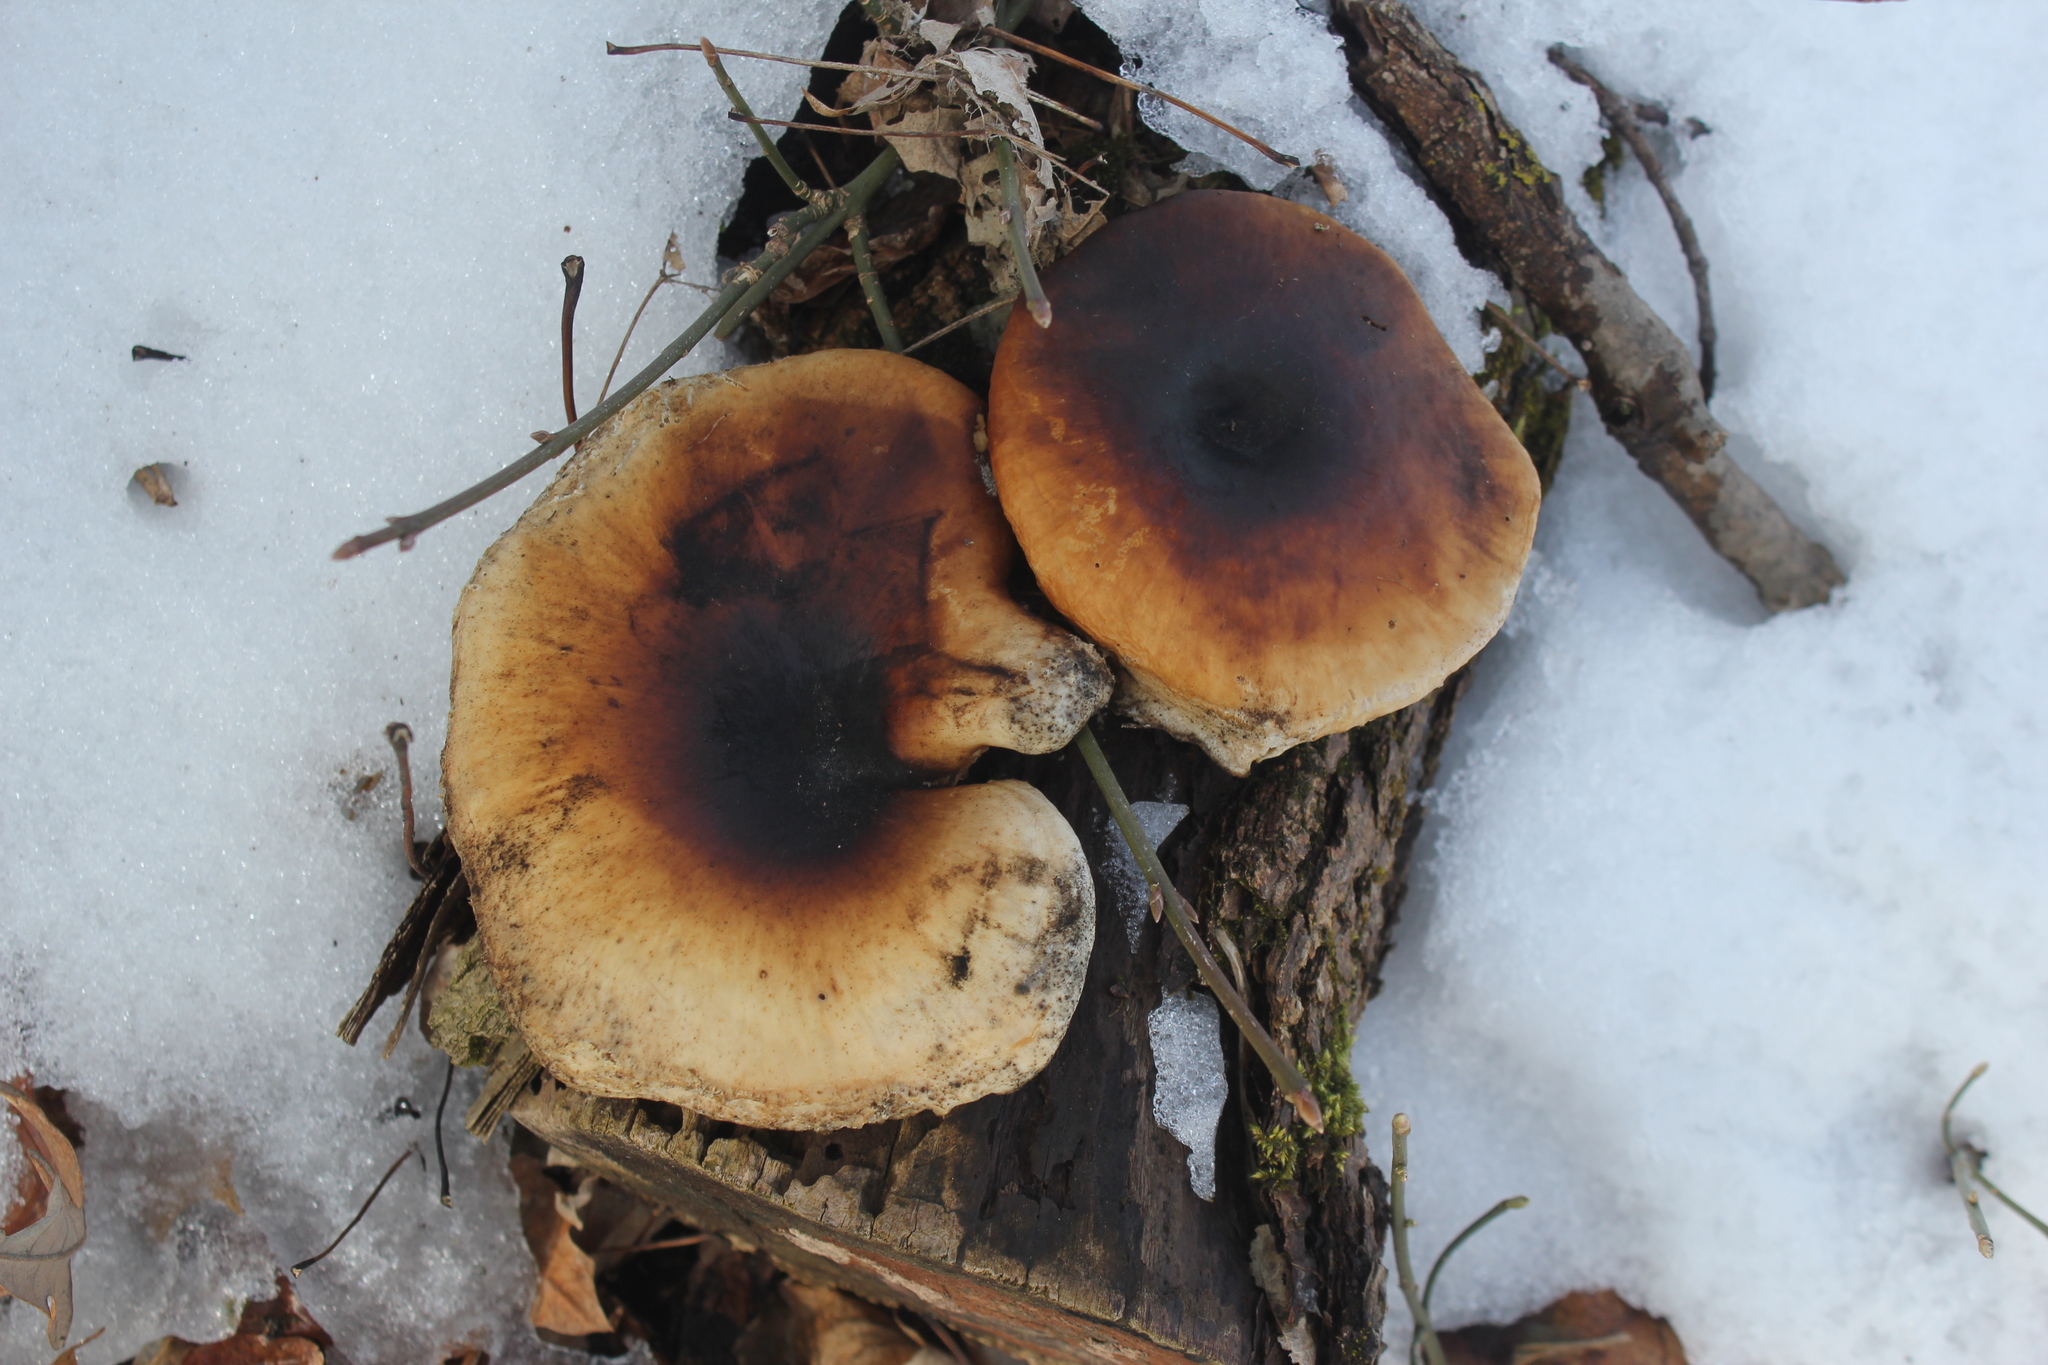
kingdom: Fungi
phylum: Basidiomycota
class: Agaricomycetes
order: Polyporales
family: Polyporaceae
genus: Picipes
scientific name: Picipes badius
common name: Bay polypore
